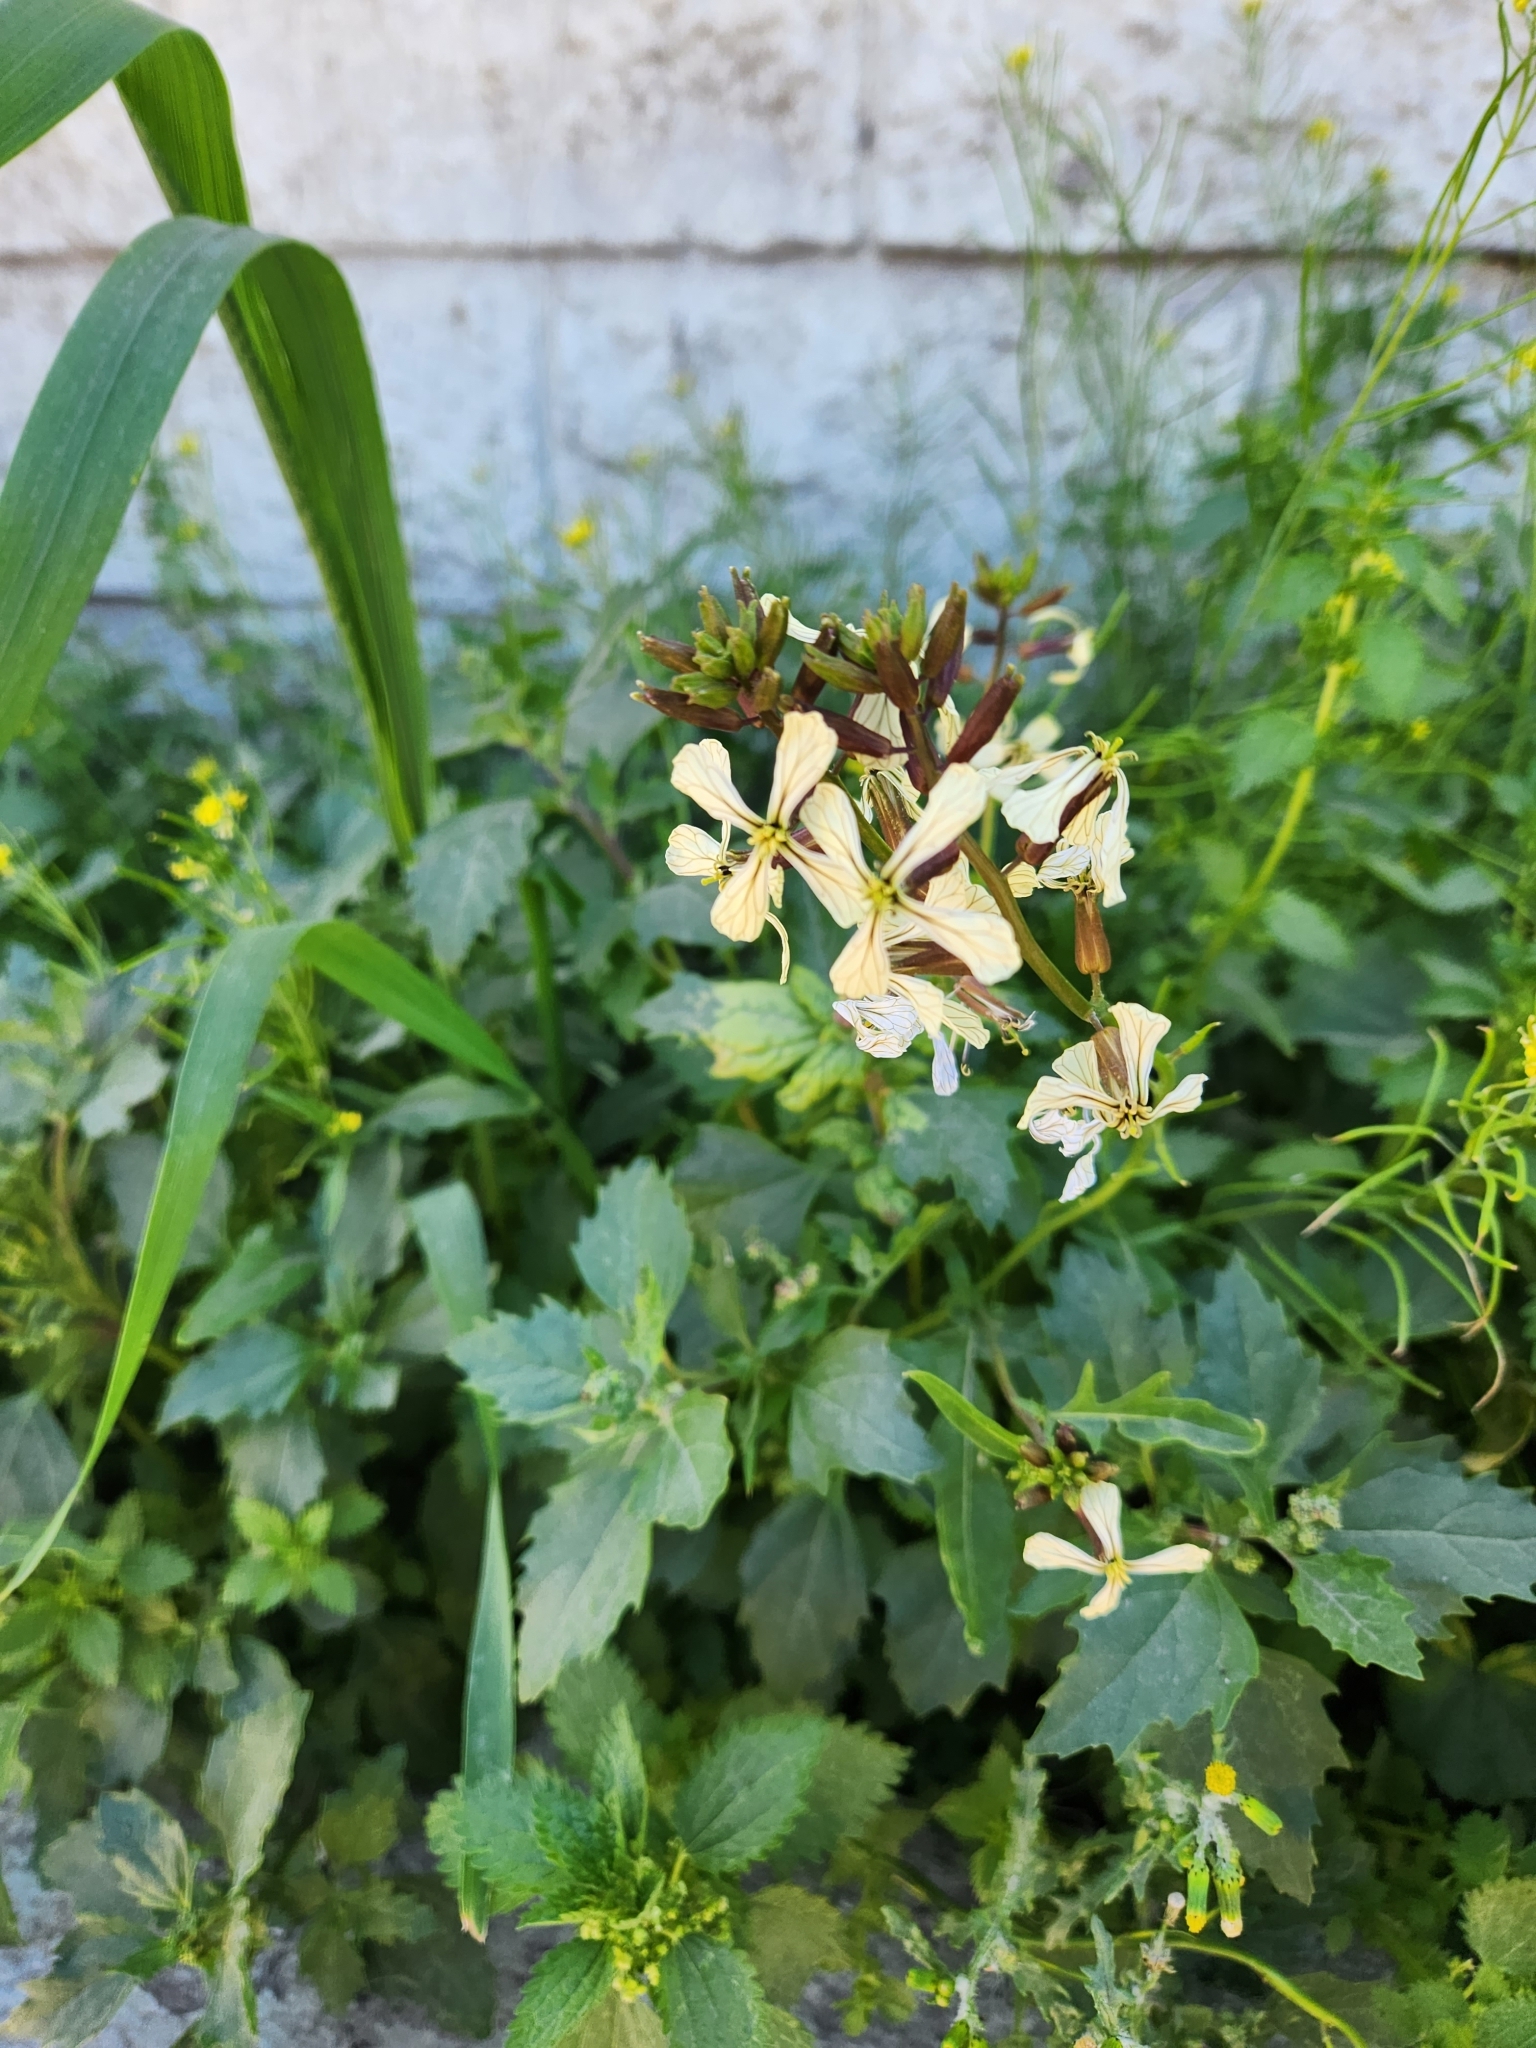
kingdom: Plantae
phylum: Tracheophyta
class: Magnoliopsida
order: Brassicales
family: Brassicaceae
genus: Eruca
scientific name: Eruca vesicaria
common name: Garden rocket
